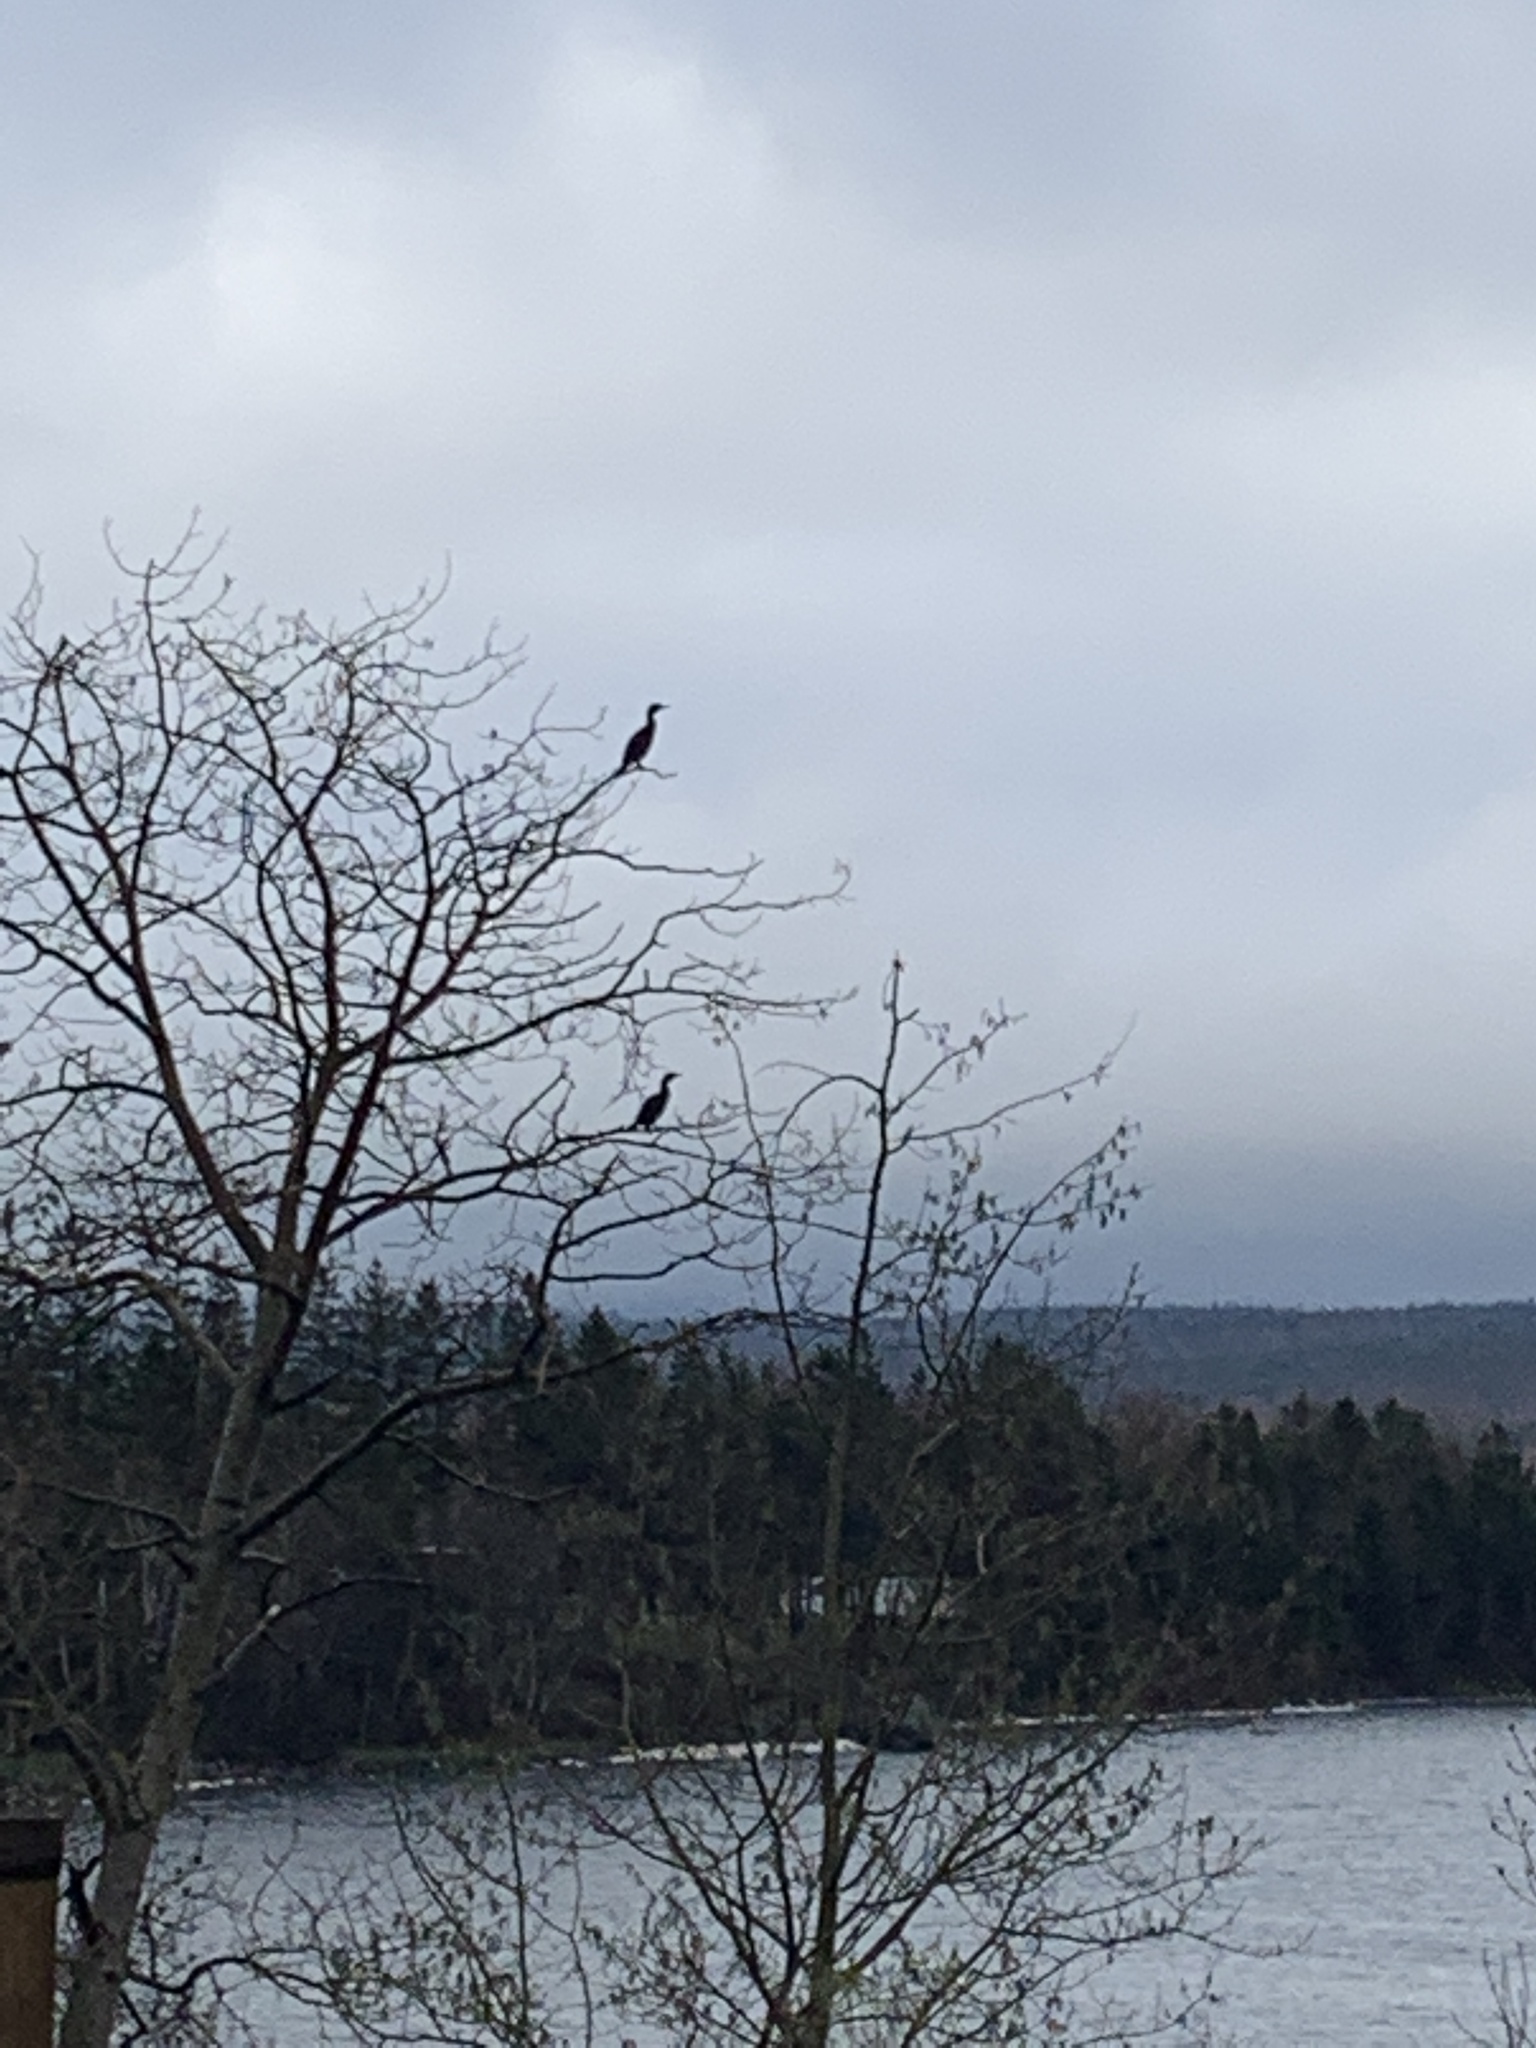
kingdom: Animalia
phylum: Chordata
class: Aves
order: Suliformes
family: Phalacrocoracidae
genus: Phalacrocorax
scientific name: Phalacrocorax auritus
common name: Double-crested cormorant
